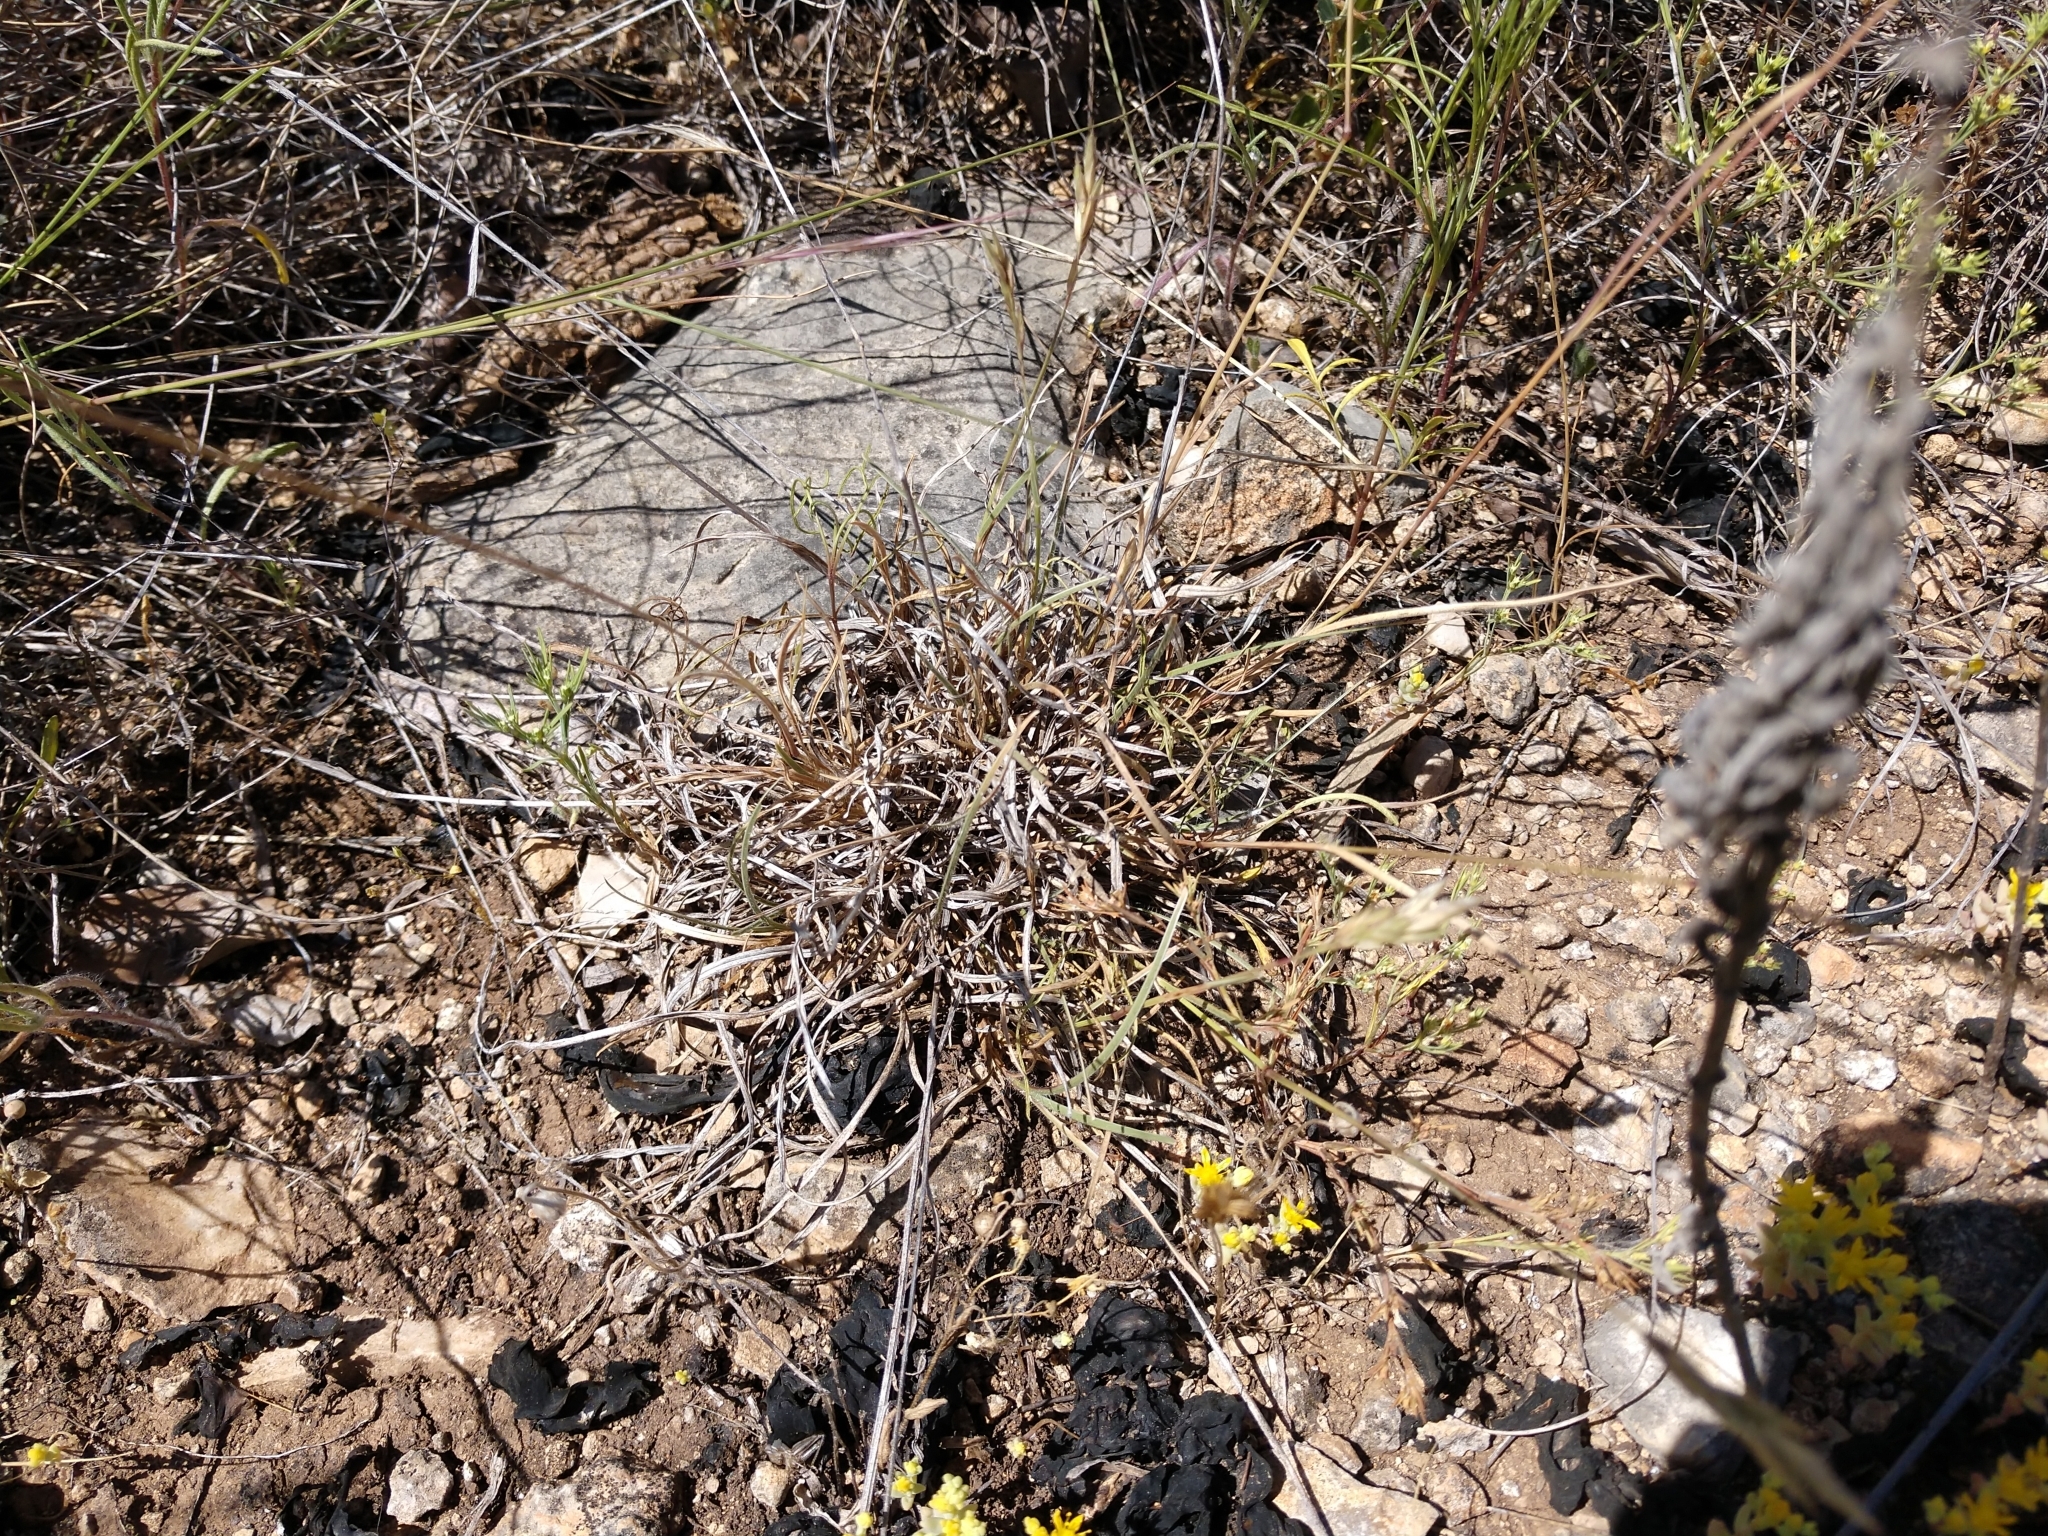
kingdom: Plantae
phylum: Tracheophyta
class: Liliopsida
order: Poales
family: Poaceae
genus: Erioneuron
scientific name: Erioneuron pilosum
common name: Hairy woolly grass
